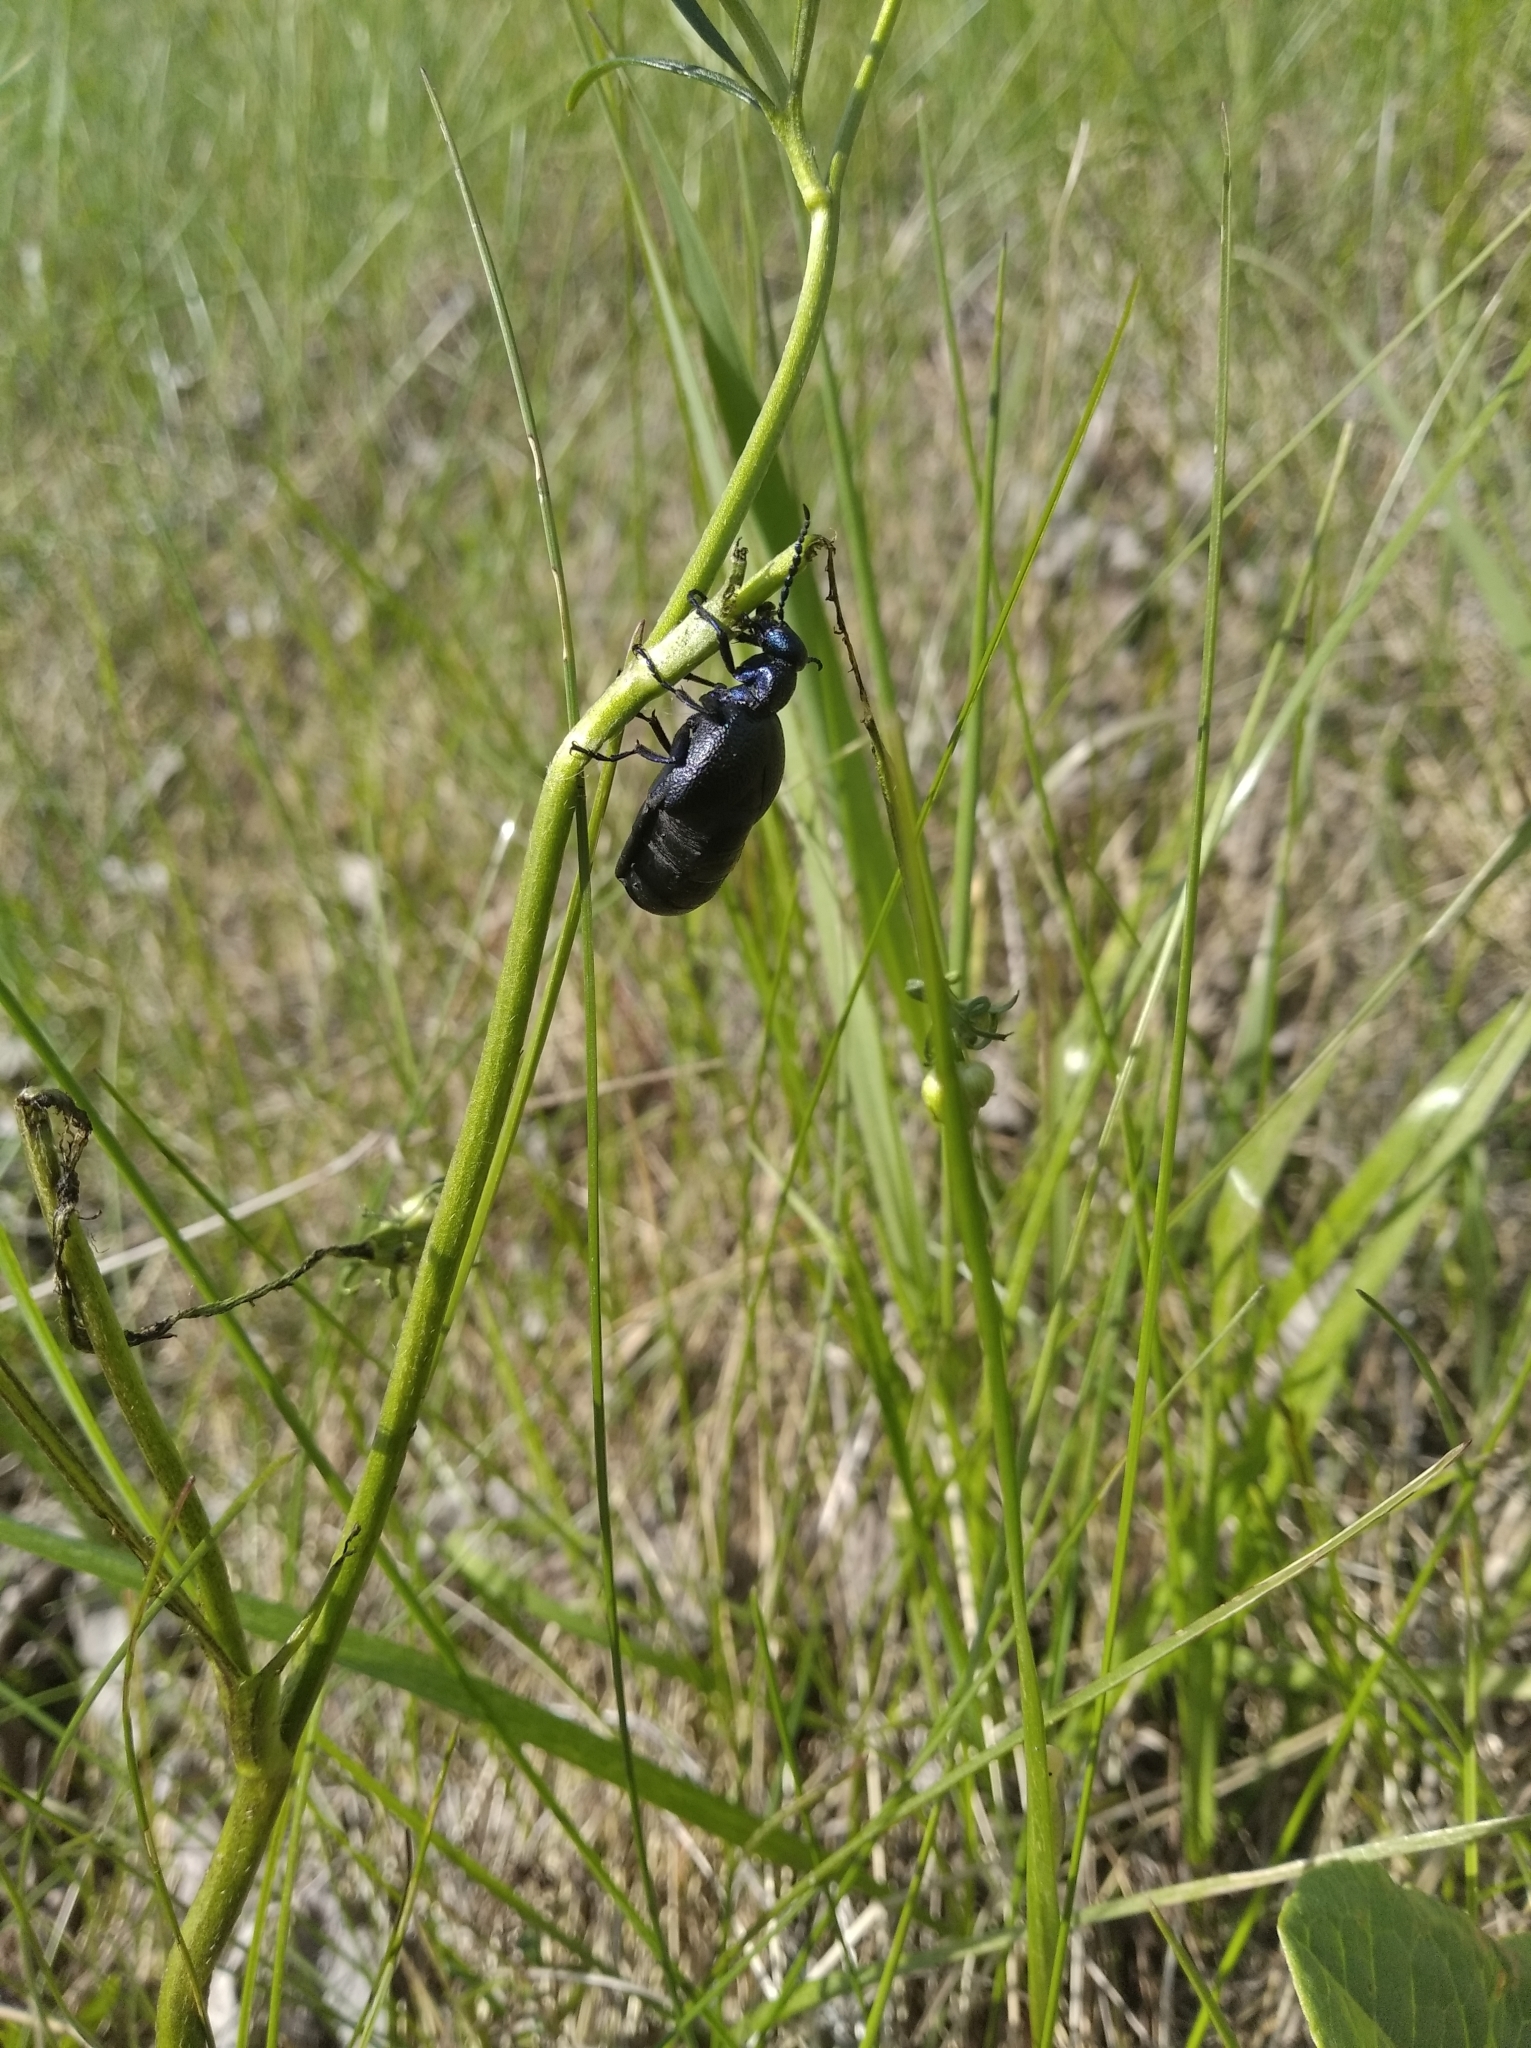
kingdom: Animalia
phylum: Arthropoda
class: Insecta
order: Coleoptera
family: Meloidae
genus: Meloe
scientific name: Meloe proscarabaeus
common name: Black oil-beetle
